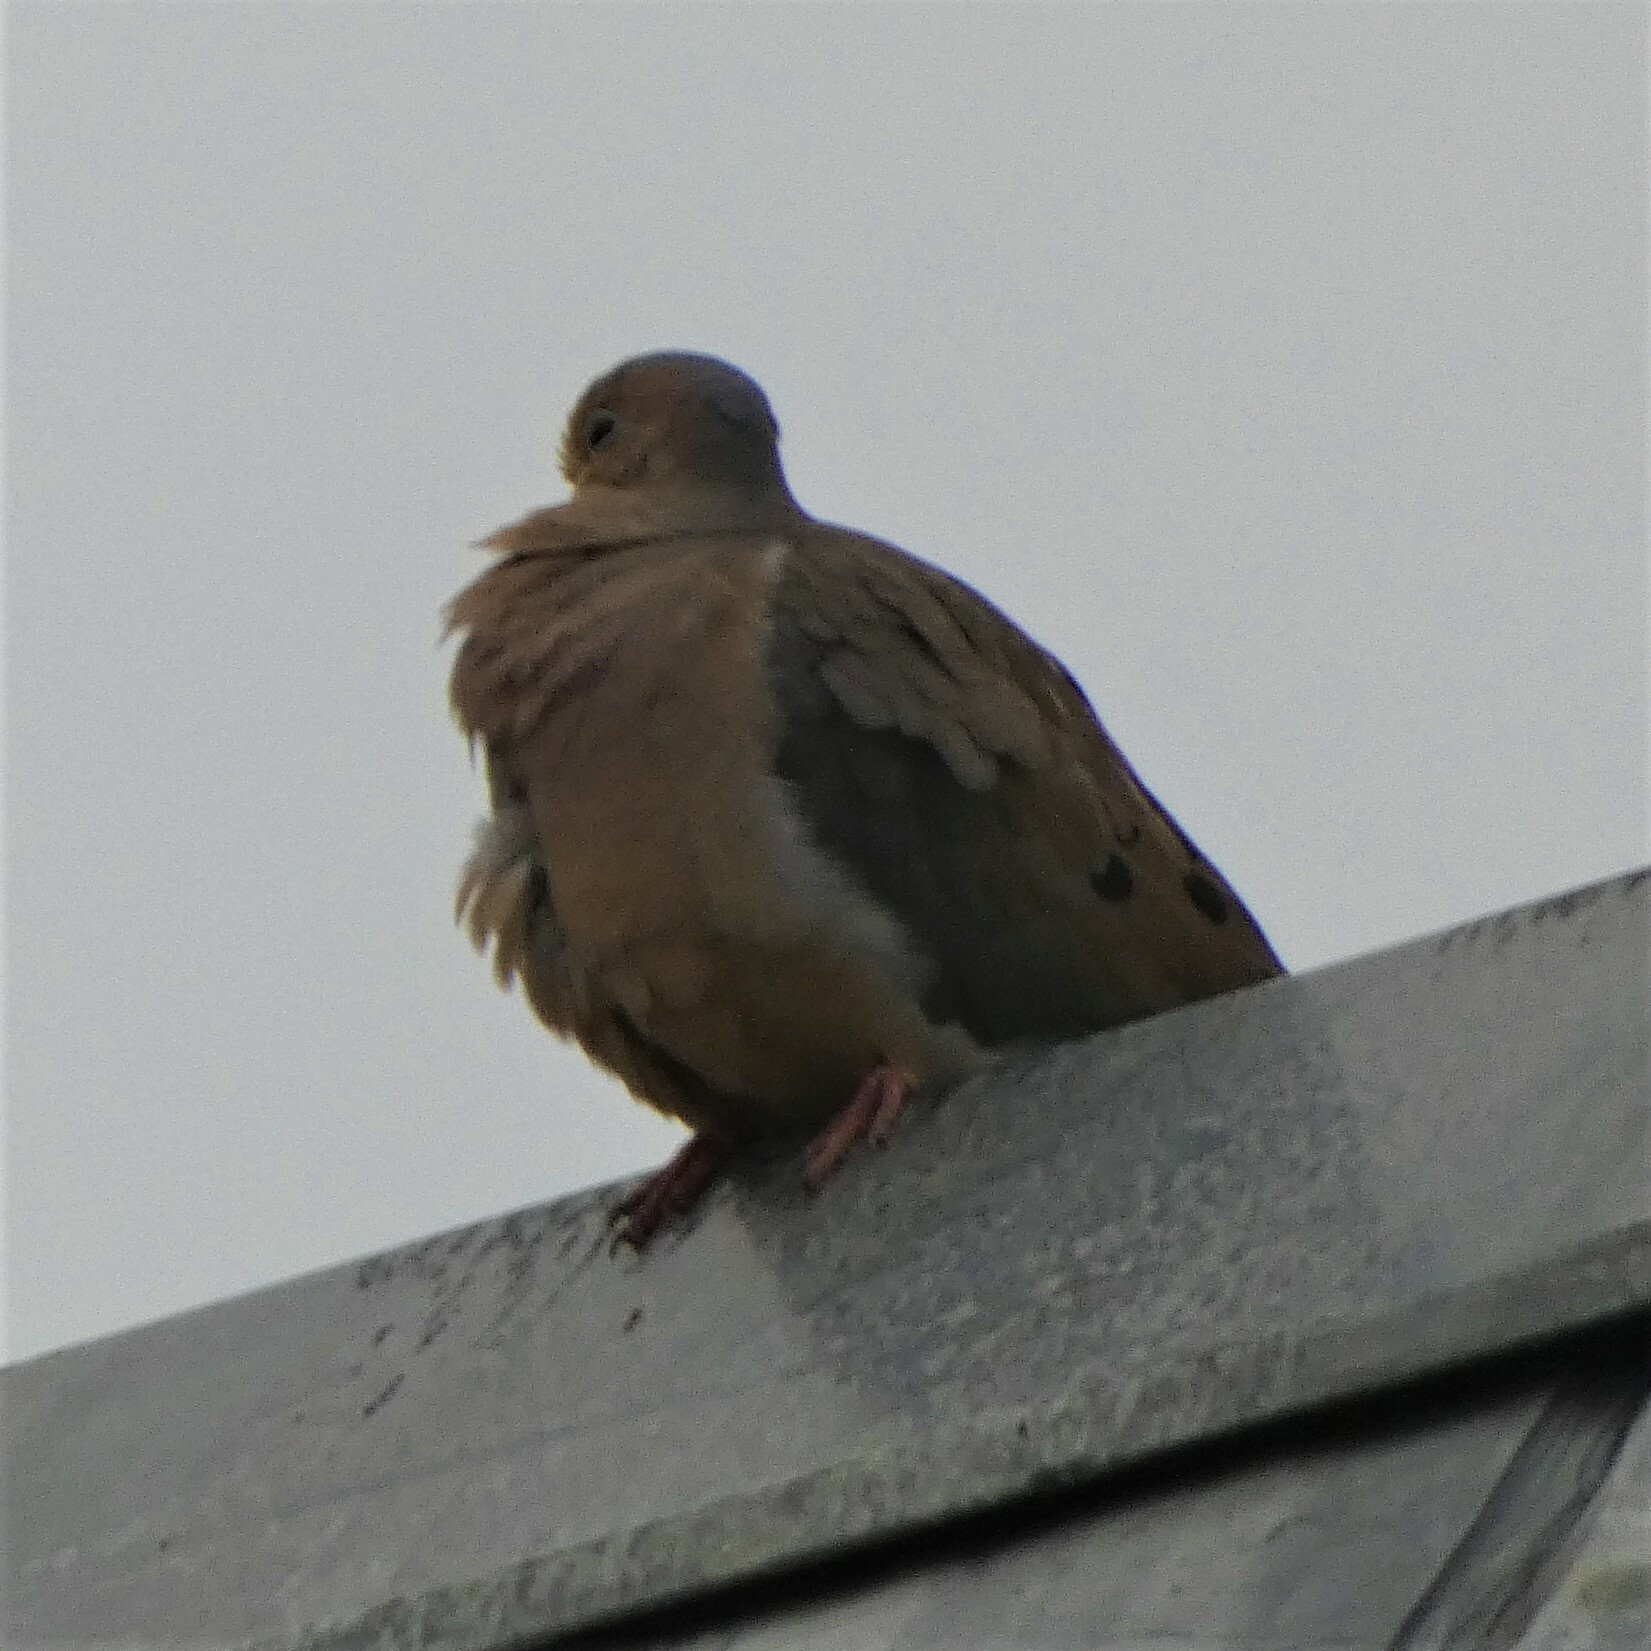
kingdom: Animalia
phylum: Chordata
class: Aves
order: Columbiformes
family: Columbidae
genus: Zenaida
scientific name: Zenaida macroura
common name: Mourning dove
